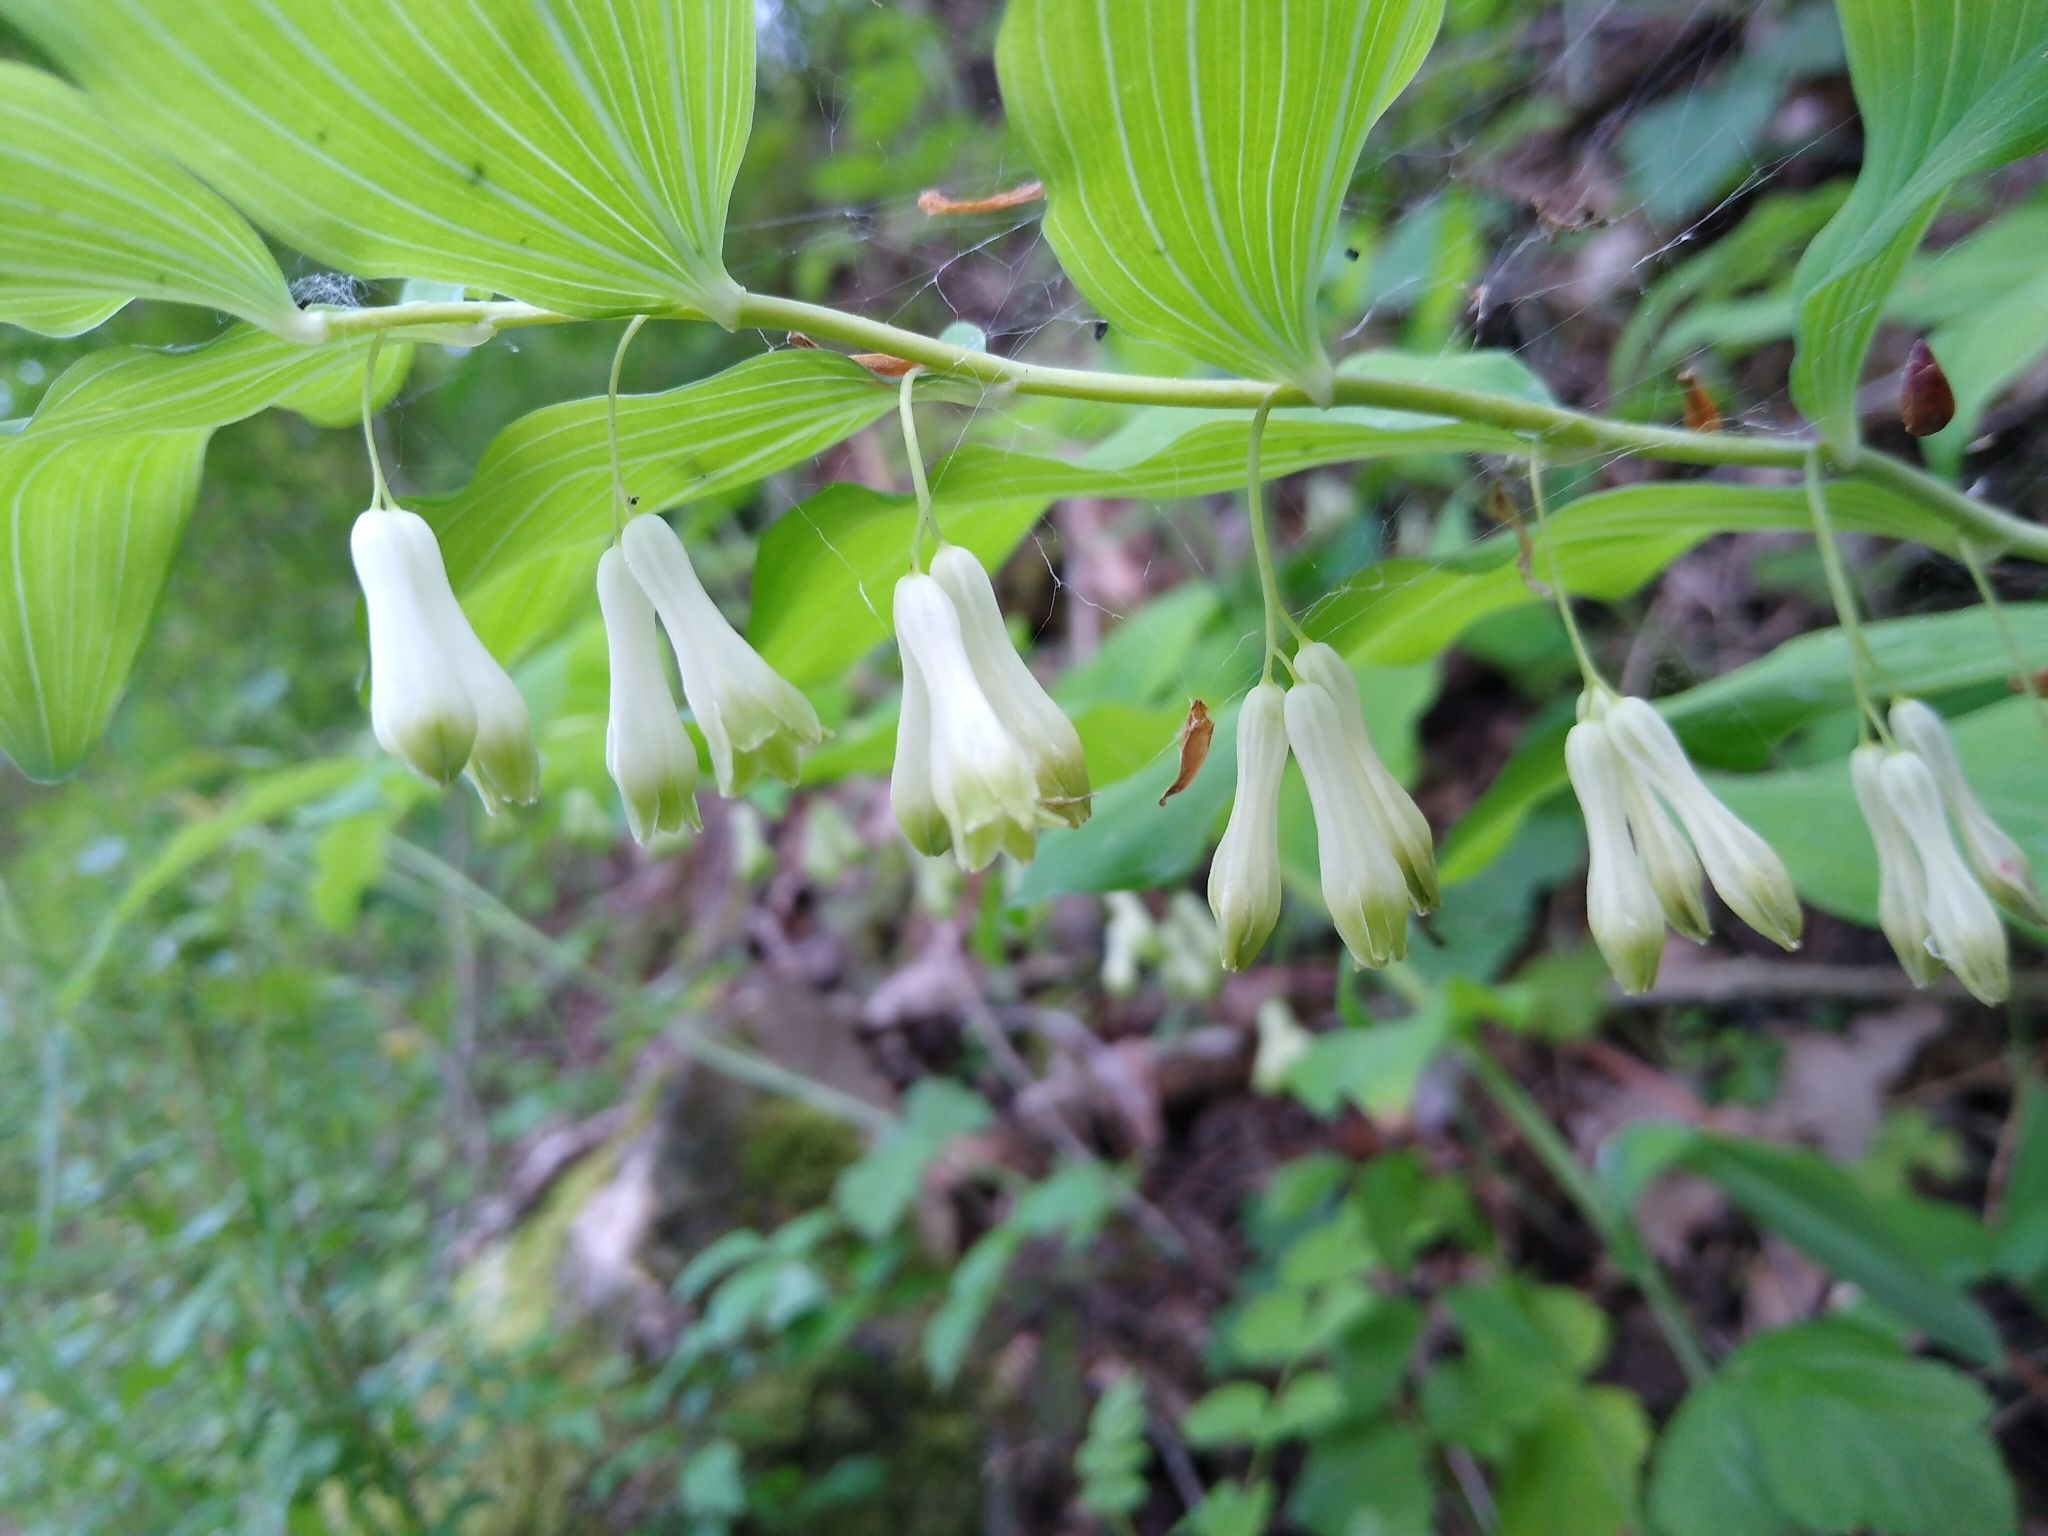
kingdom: Plantae
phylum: Tracheophyta
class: Liliopsida
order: Asparagales
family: Asparagaceae
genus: Polygonatum
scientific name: Polygonatum multiflorum
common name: Solomon's-seal
